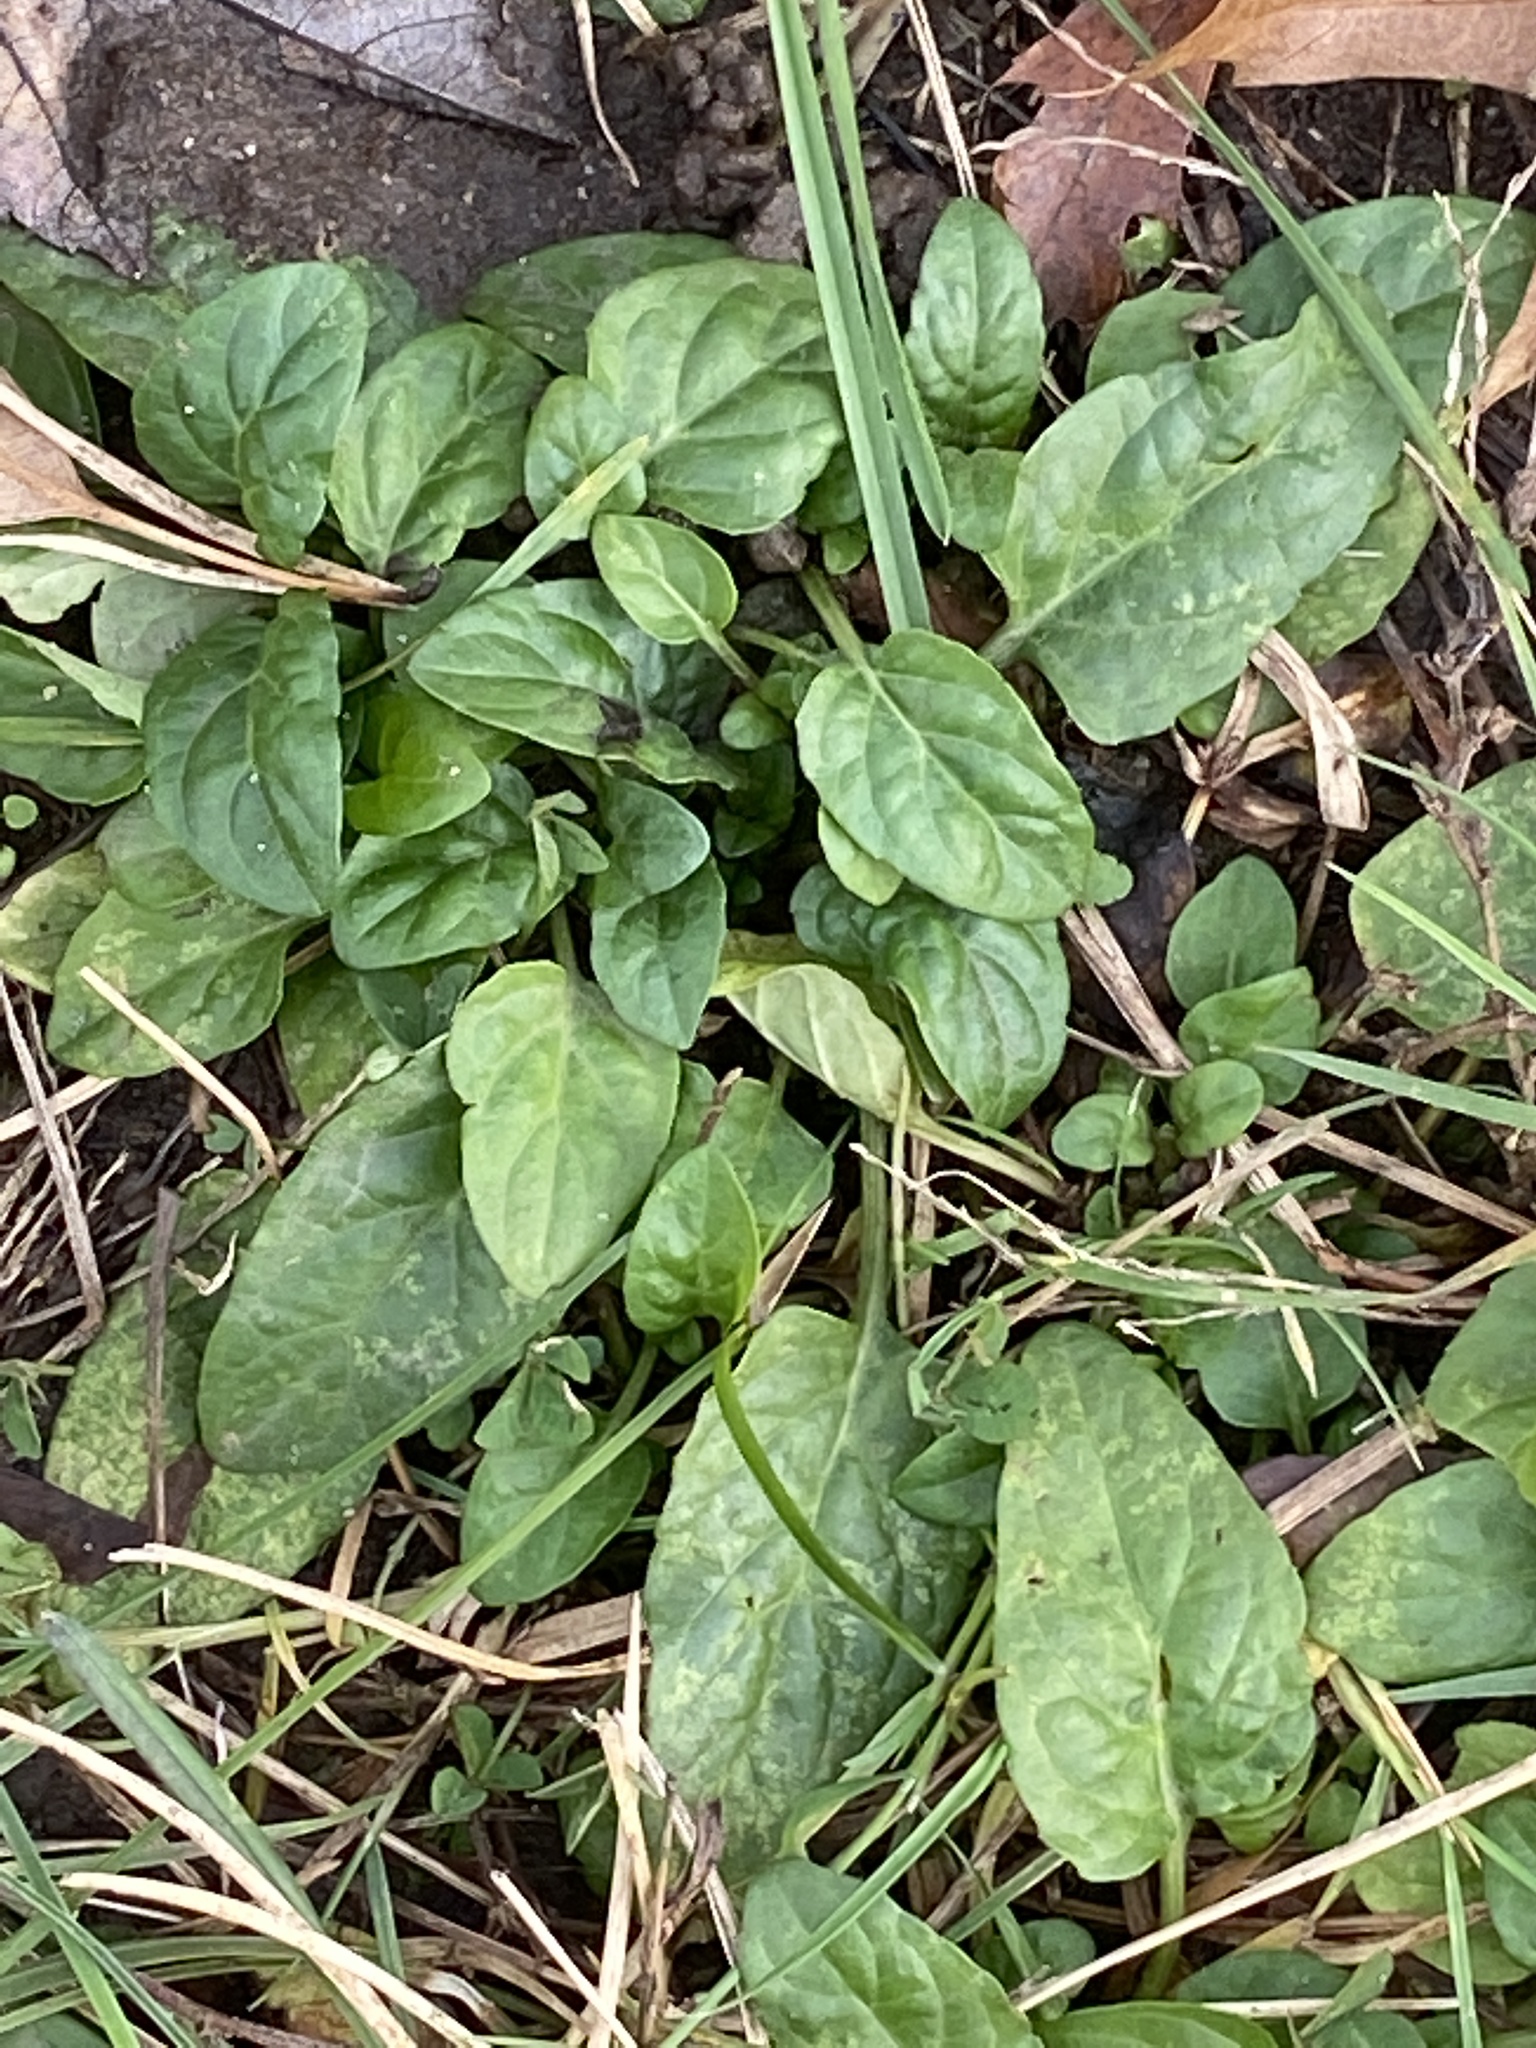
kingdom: Plantae
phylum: Tracheophyta
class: Magnoliopsida
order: Lamiales
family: Lamiaceae
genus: Prunella
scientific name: Prunella vulgaris
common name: Heal-all
